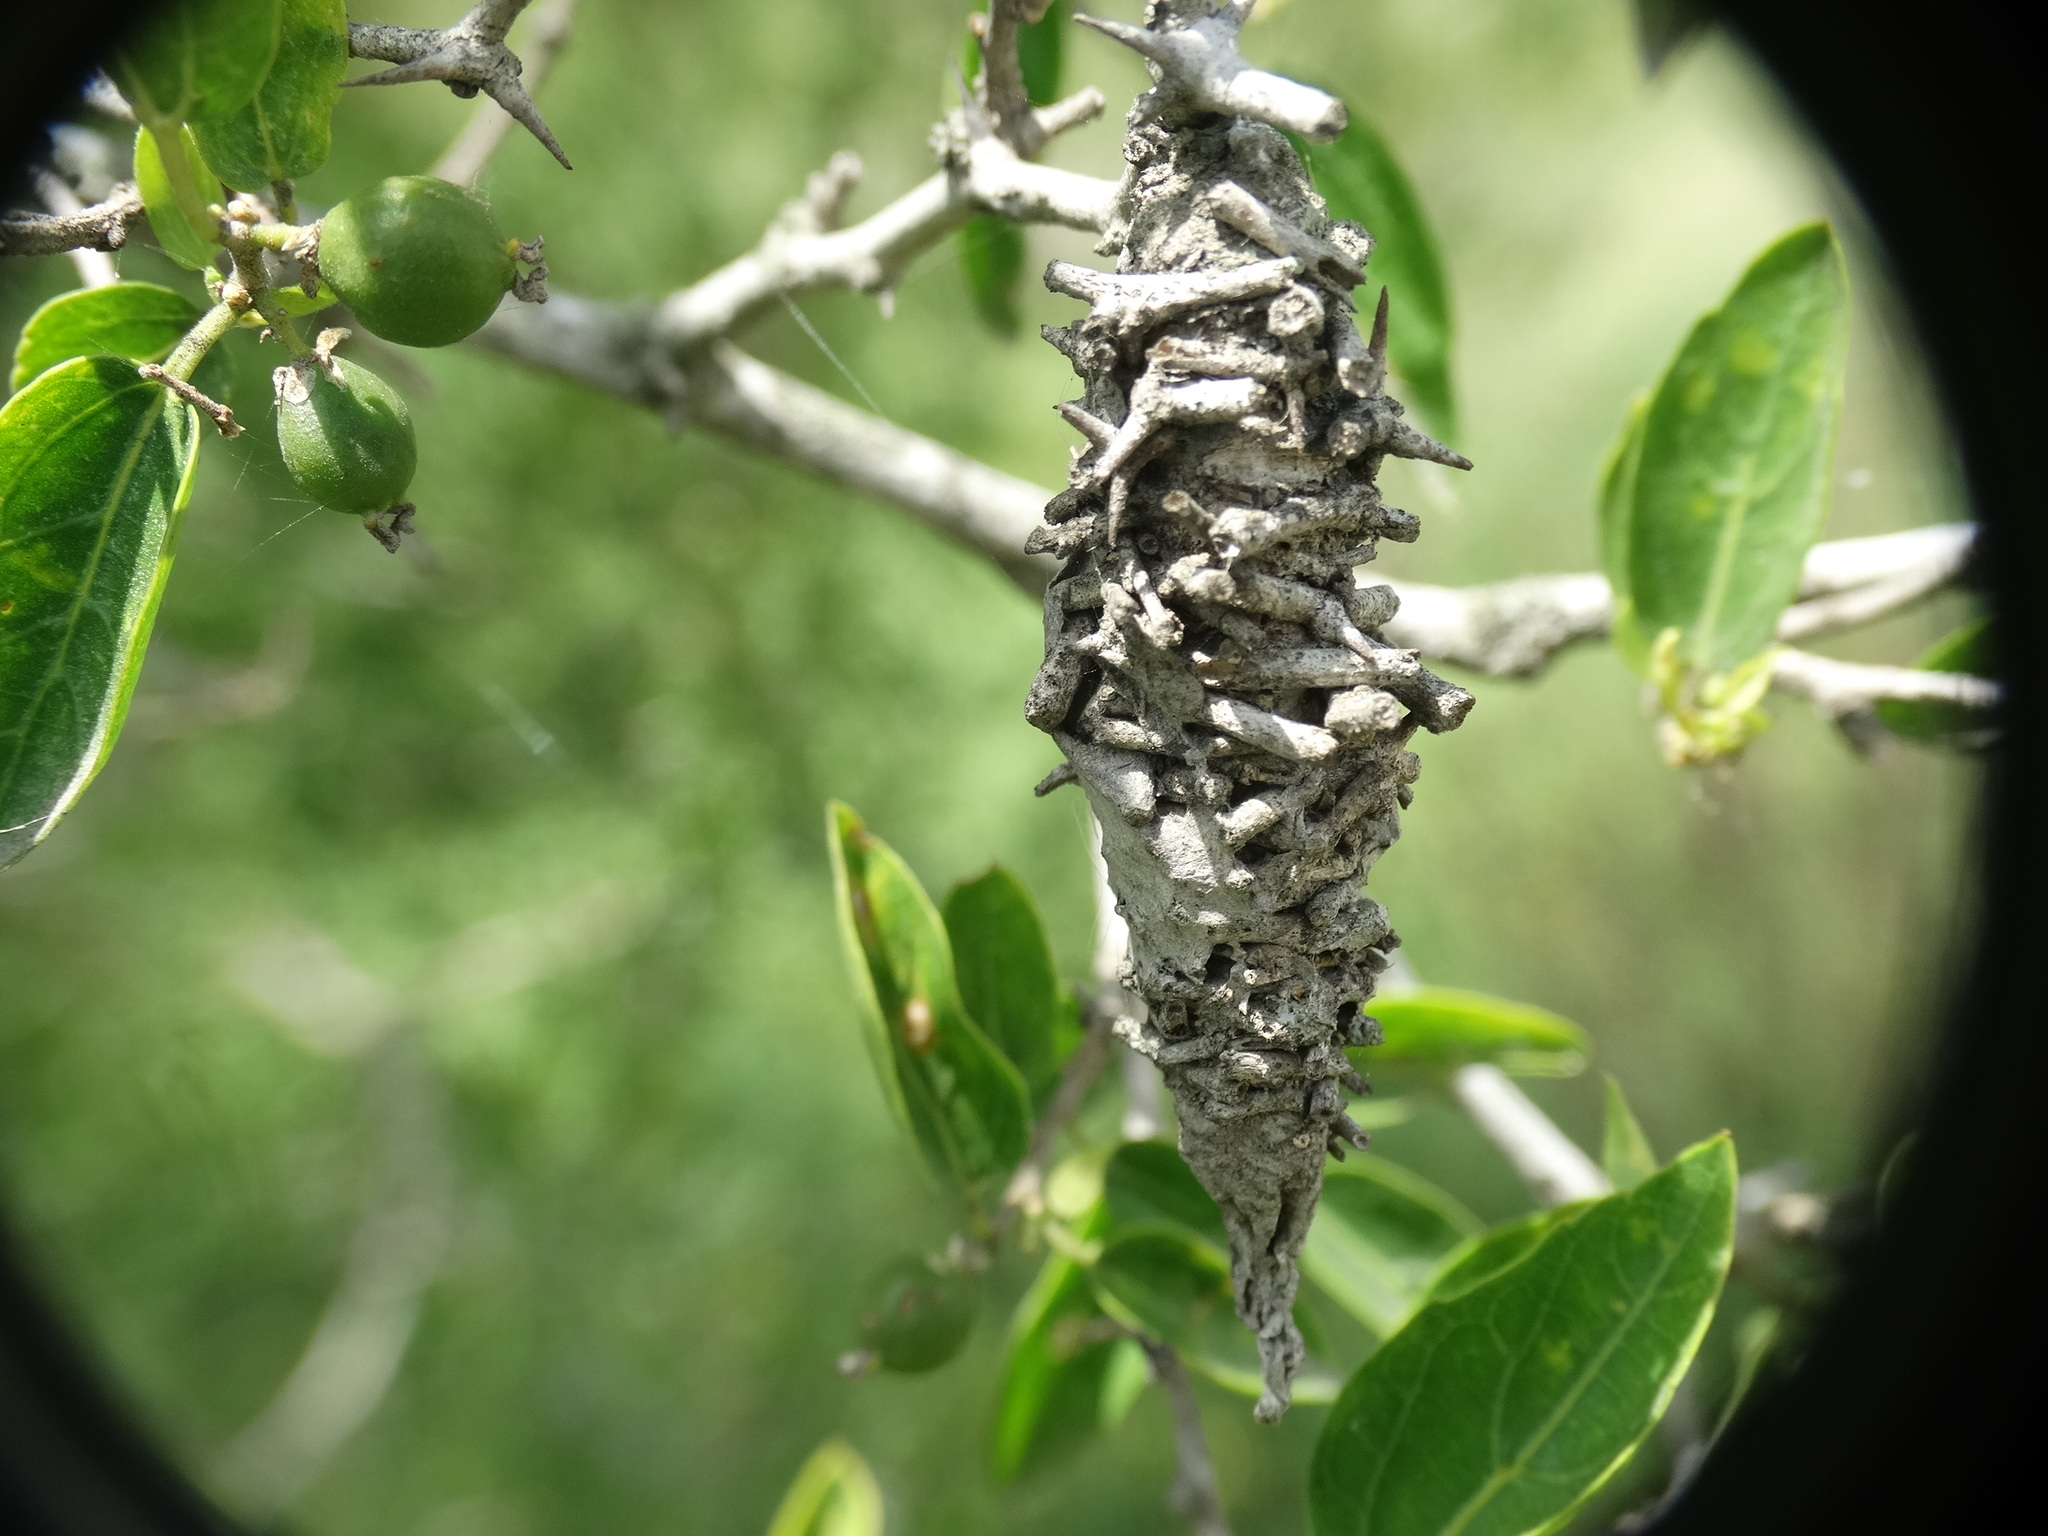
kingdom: Animalia
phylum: Arthropoda
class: Insecta
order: Lepidoptera
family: Psychidae
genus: Oiketicus
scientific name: Oiketicus
